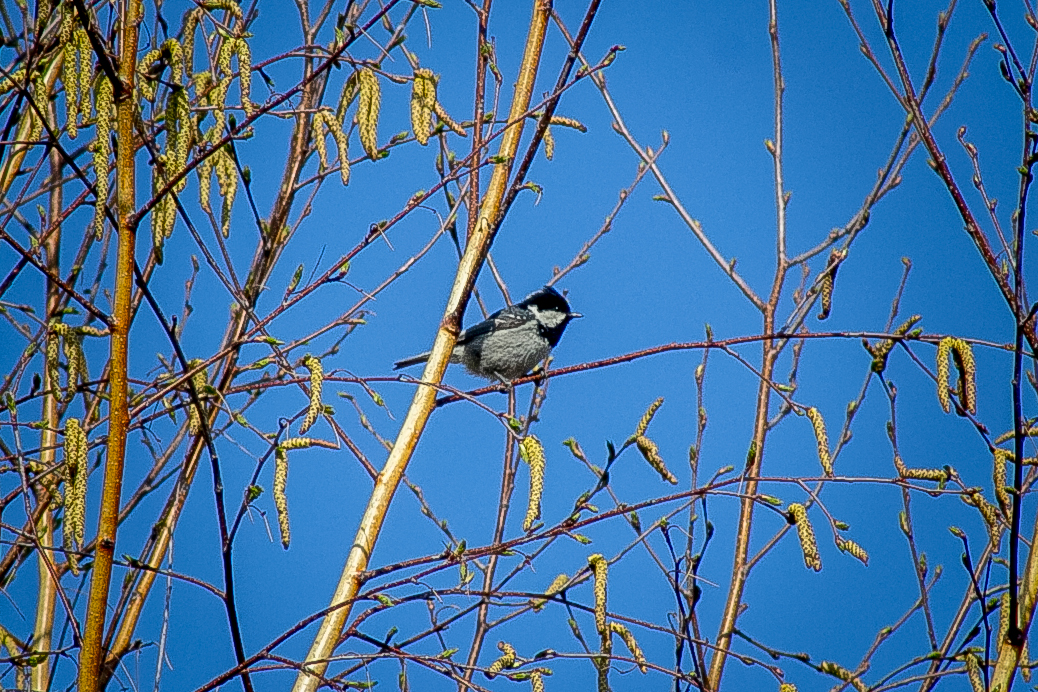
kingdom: Animalia
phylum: Chordata
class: Aves
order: Passeriformes
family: Paridae
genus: Periparus
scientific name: Periparus ater
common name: Coal tit
